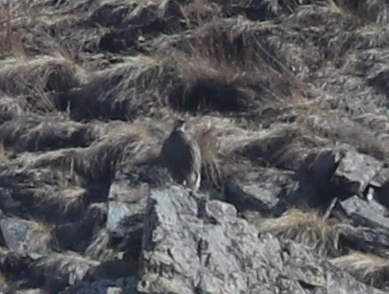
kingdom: Animalia
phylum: Chordata
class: Aves
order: Galliformes
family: Phasianidae
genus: Tetraogallus
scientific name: Tetraogallus caucasicus
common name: Caucasian snowcock
